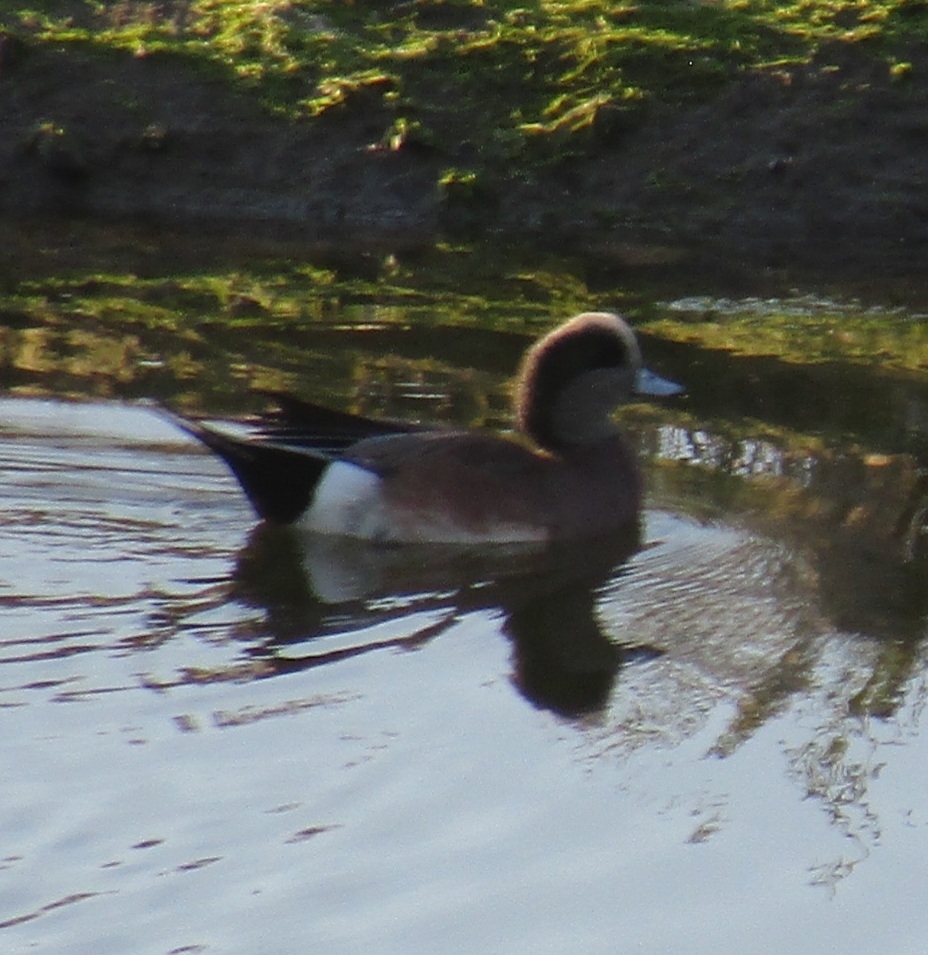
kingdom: Animalia
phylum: Chordata
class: Aves
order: Anseriformes
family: Anatidae
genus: Mareca
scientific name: Mareca americana
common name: American wigeon
